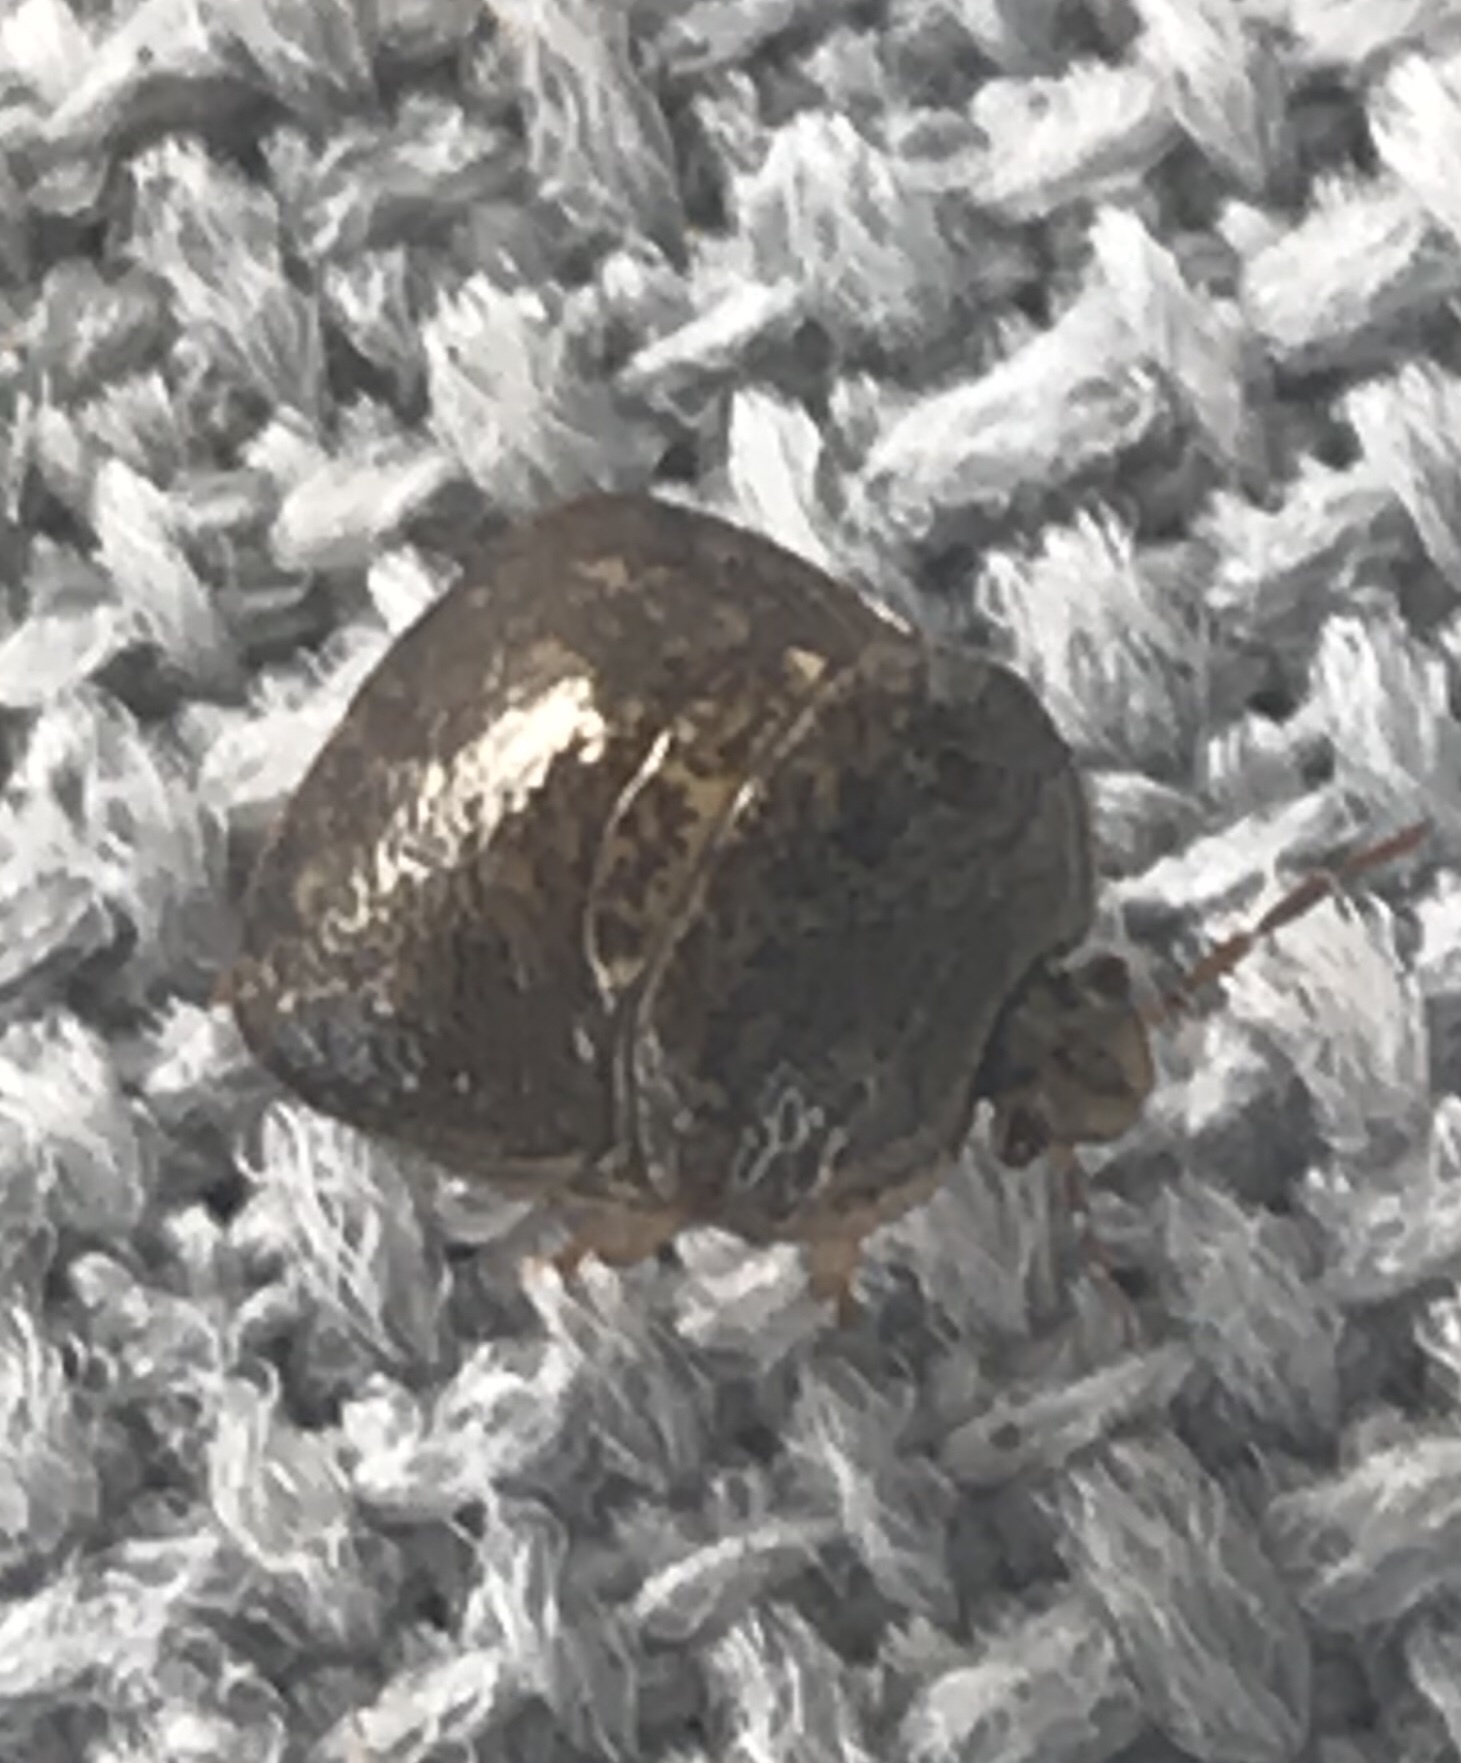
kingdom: Animalia
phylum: Arthropoda
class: Insecta
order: Hemiptera
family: Plataspidae
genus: Megacopta
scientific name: Megacopta cribraria
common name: Bean plataspid
